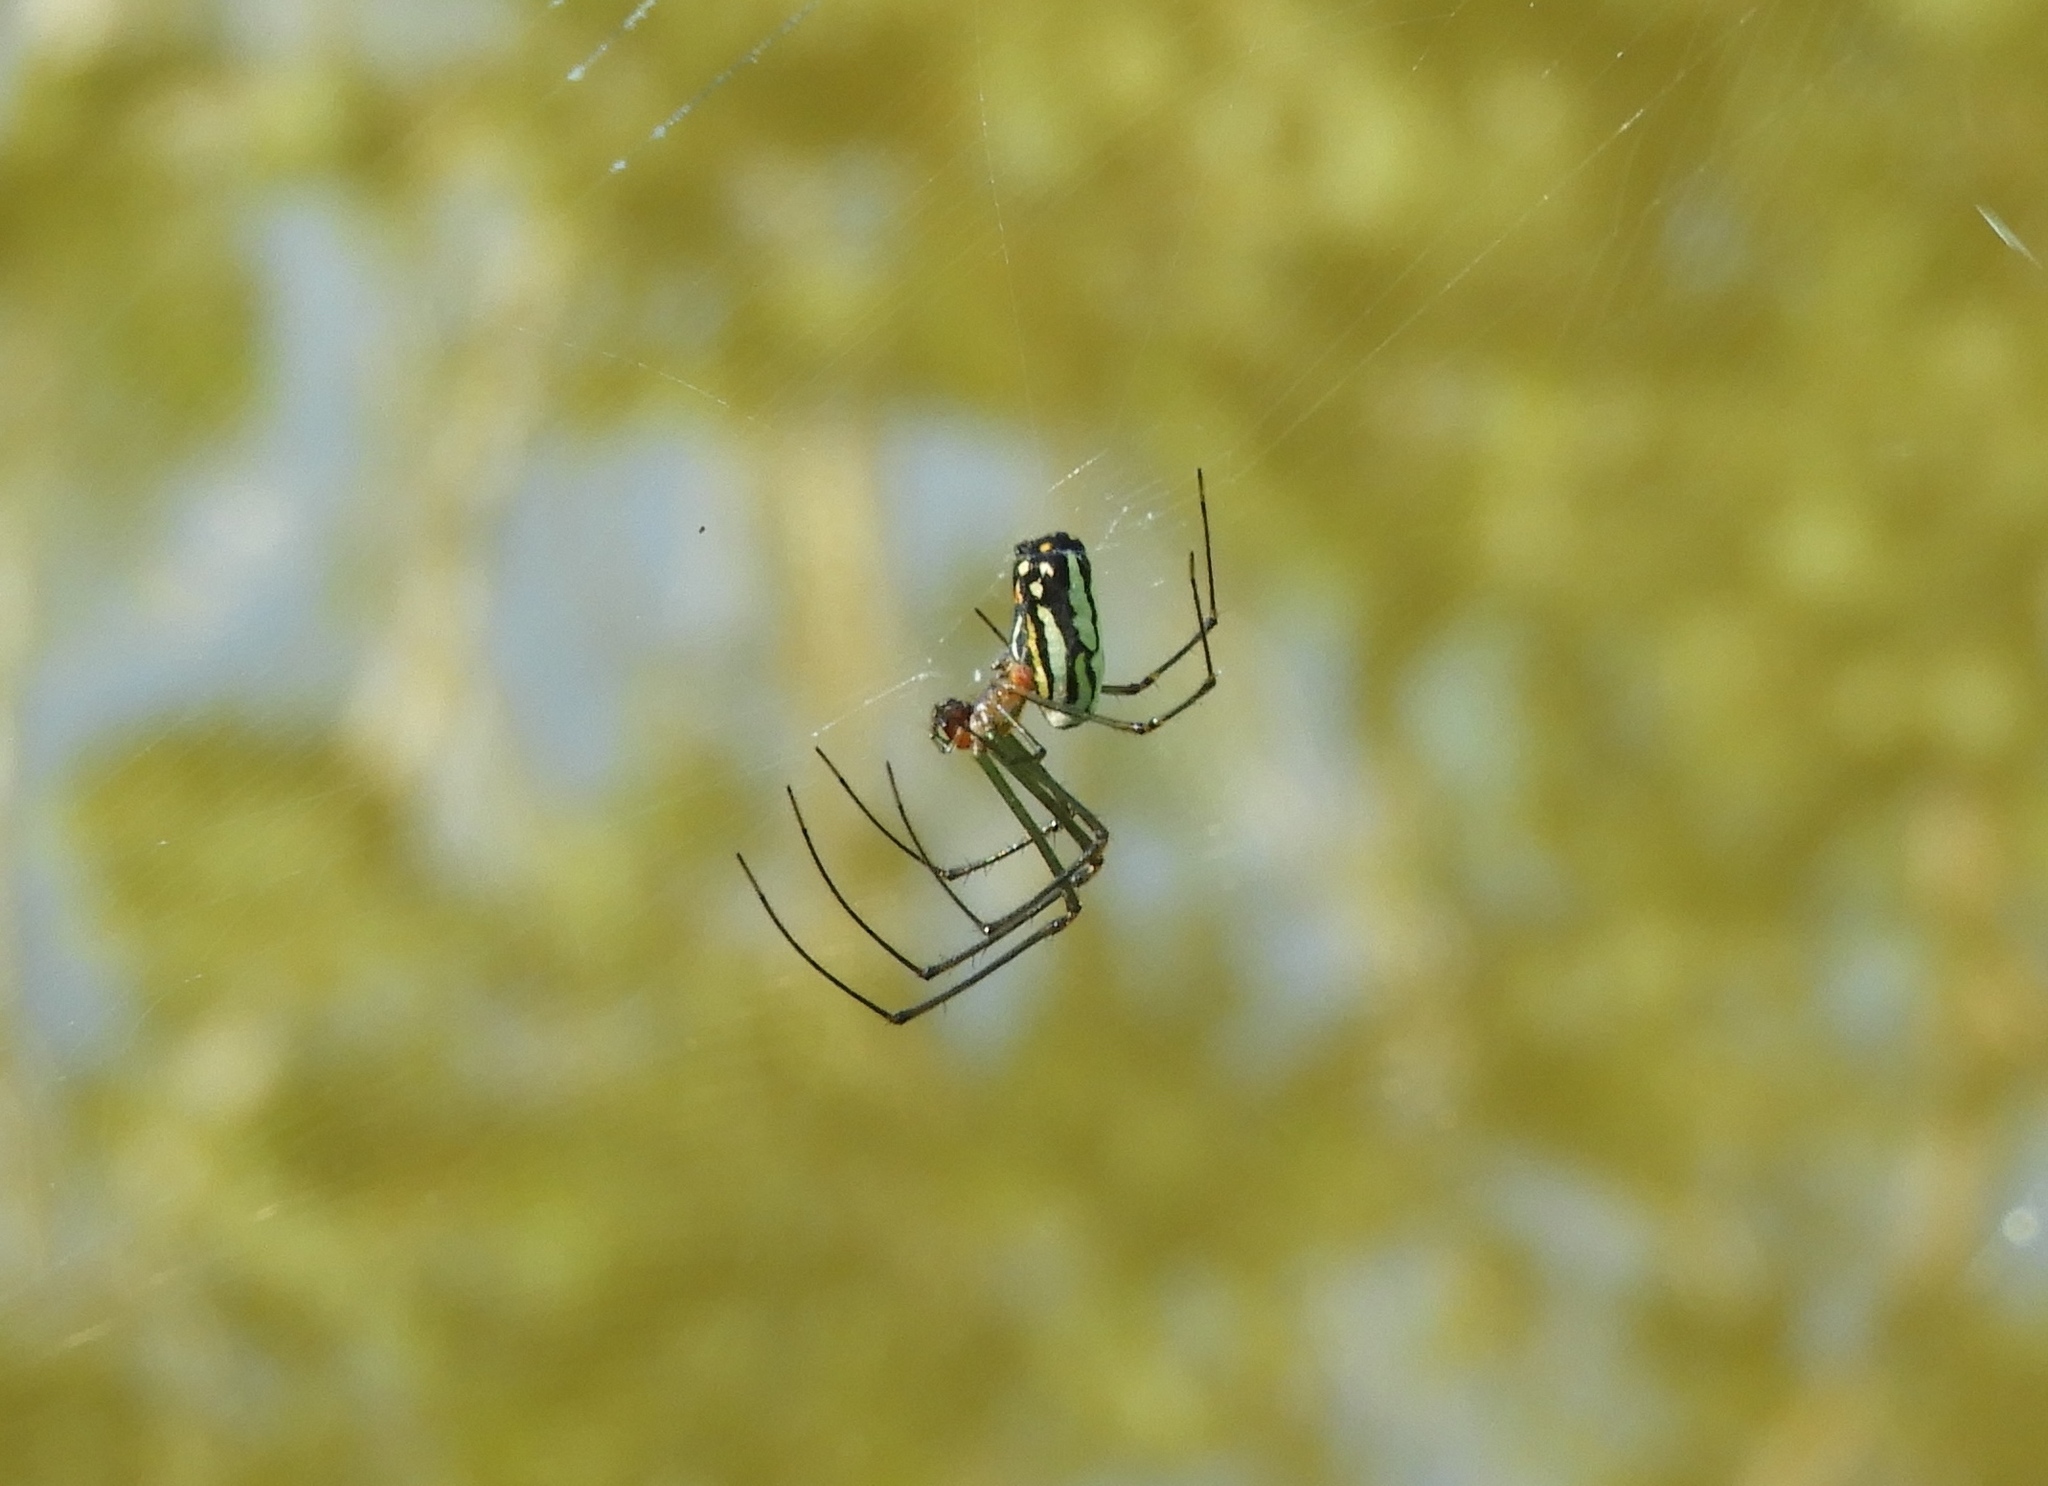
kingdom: Animalia
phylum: Arthropoda
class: Arachnida
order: Araneae
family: Tetragnathidae
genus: Leucauge
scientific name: Leucauge
